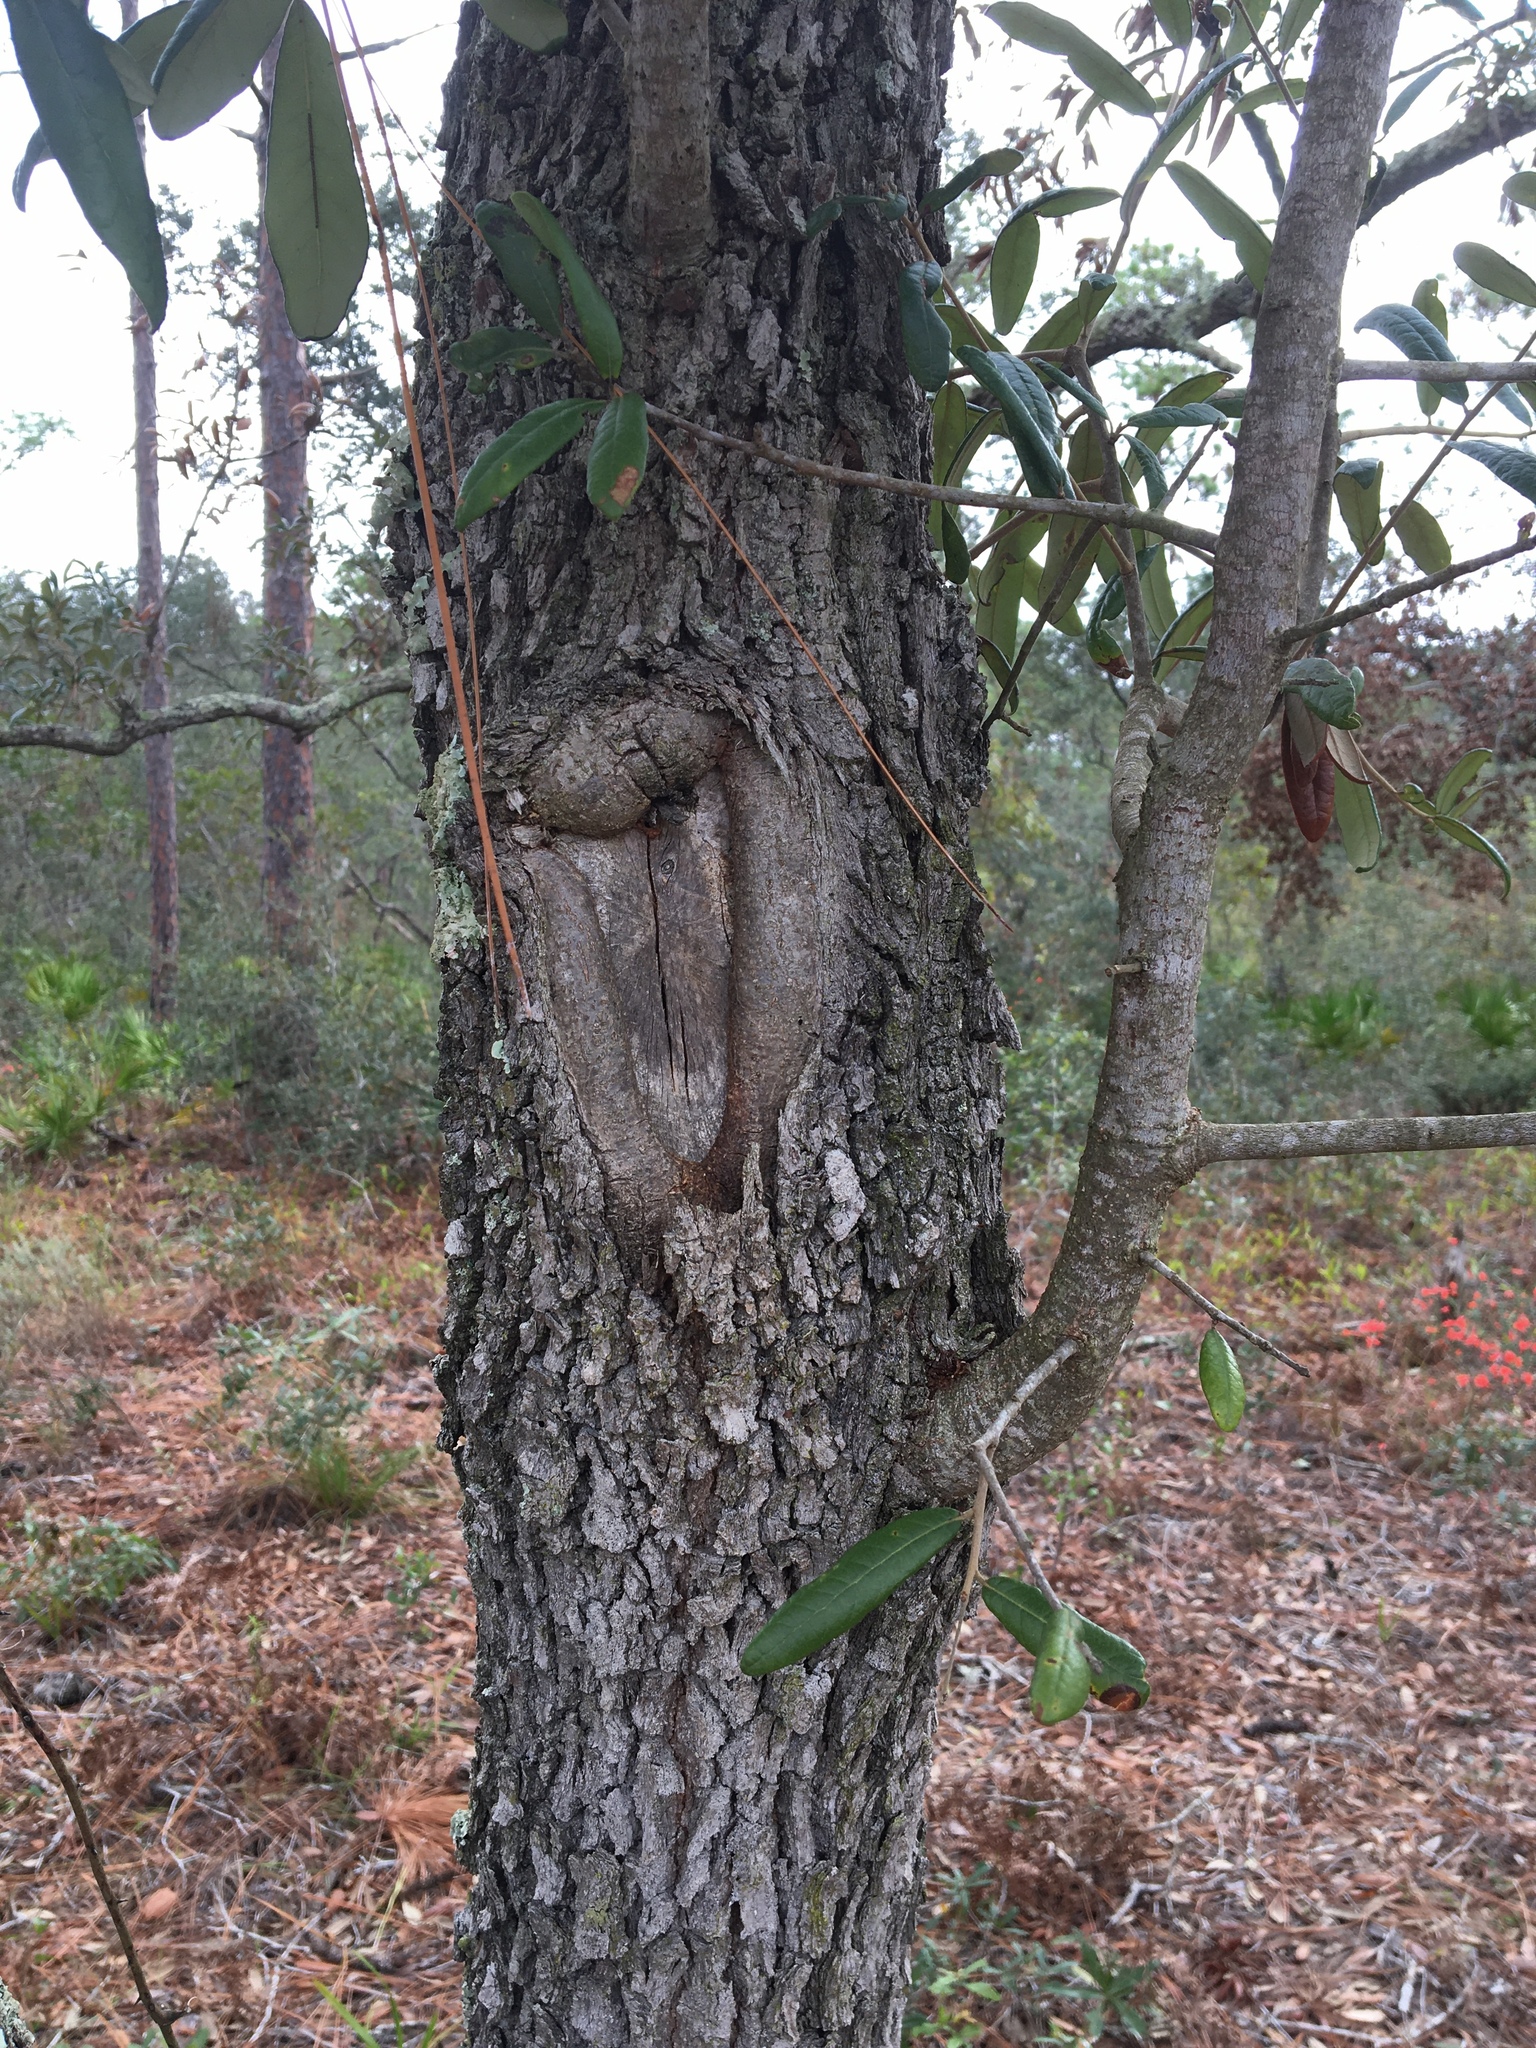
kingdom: Plantae
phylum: Tracheophyta
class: Magnoliopsida
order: Fagales
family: Fagaceae
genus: Quercus
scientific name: Quercus geminata
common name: Sand live oak
